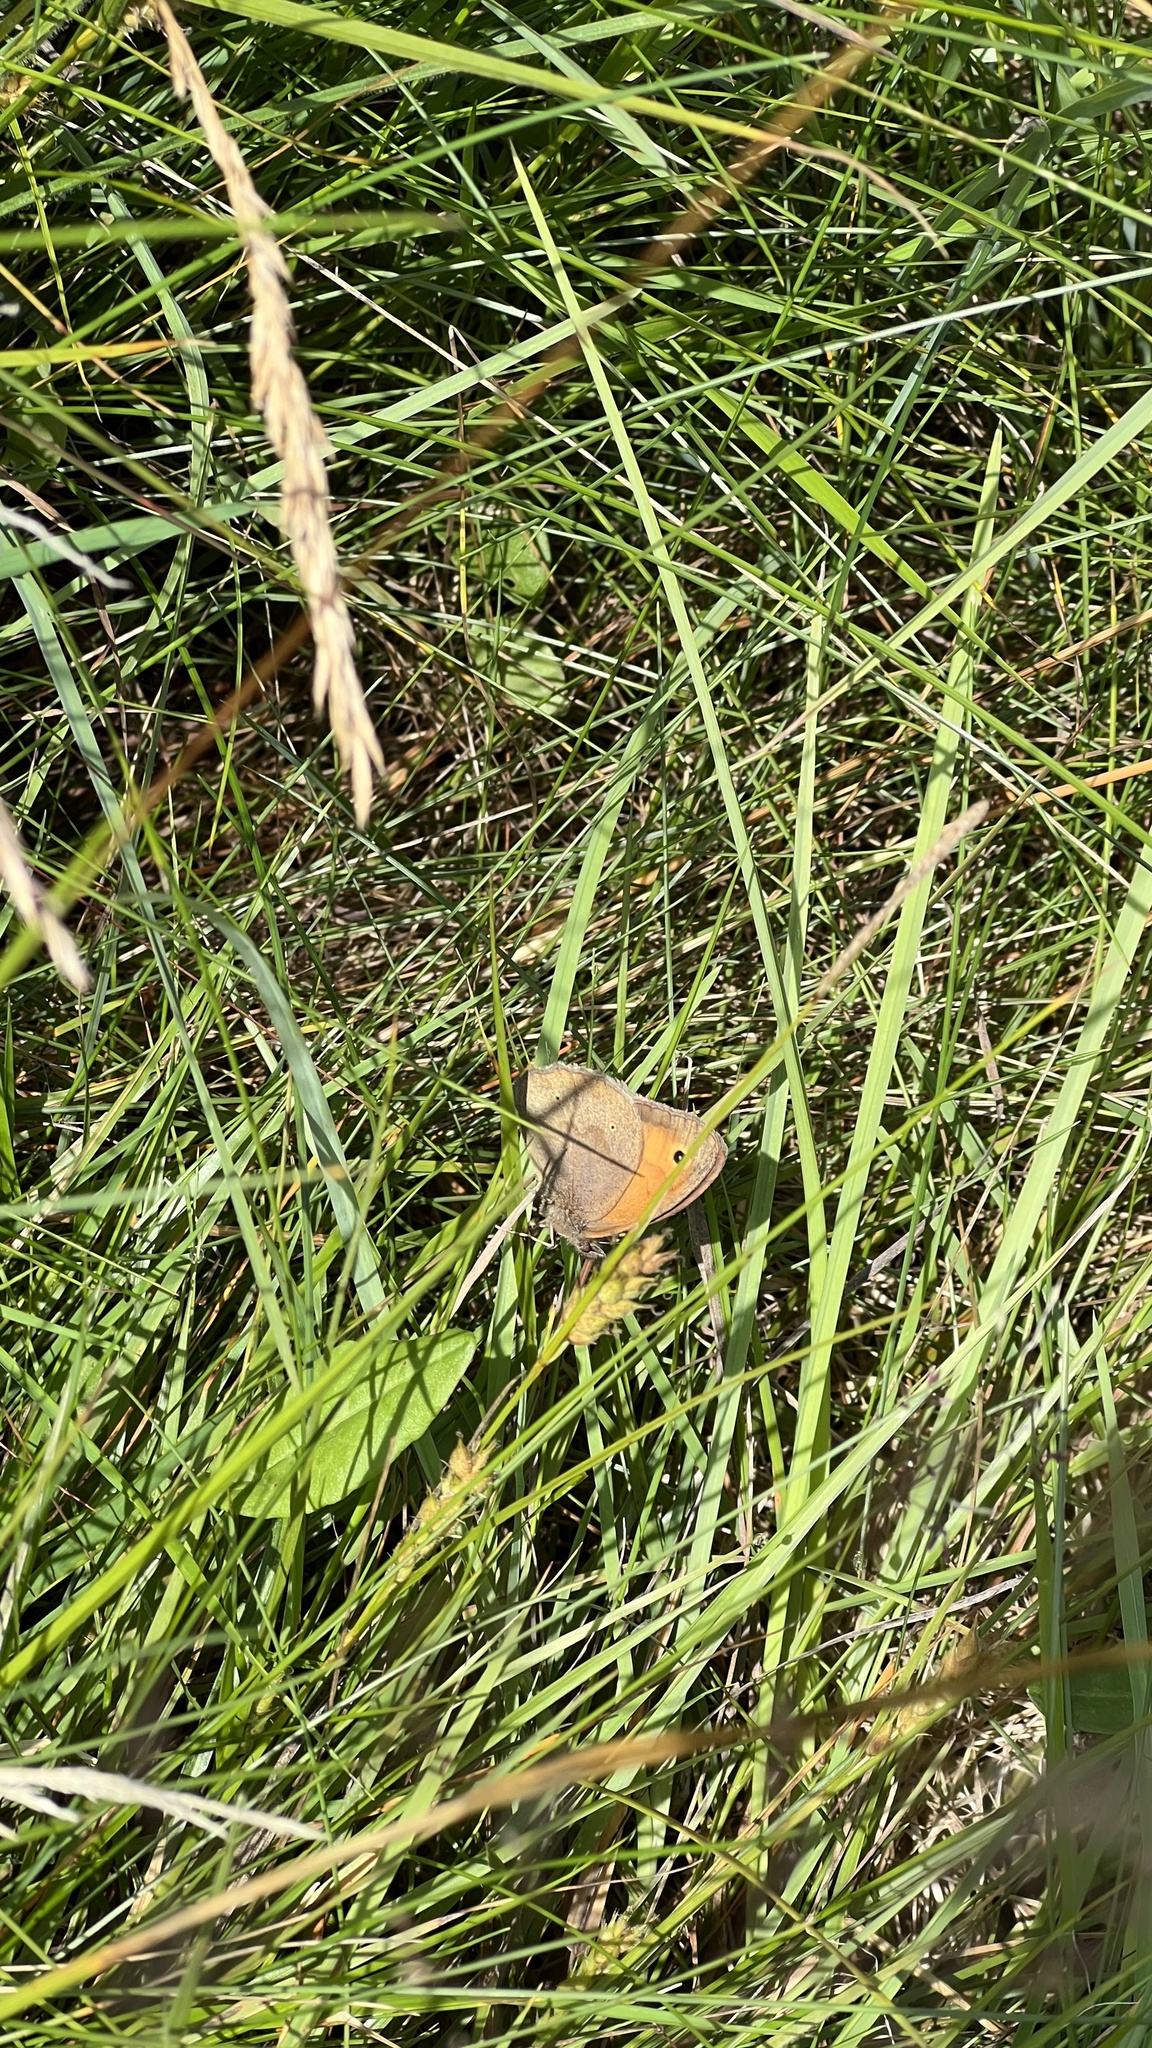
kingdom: Animalia
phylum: Arthropoda
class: Insecta
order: Lepidoptera
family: Nymphalidae
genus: Maniola
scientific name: Maniola jurtina
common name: Meadow brown
